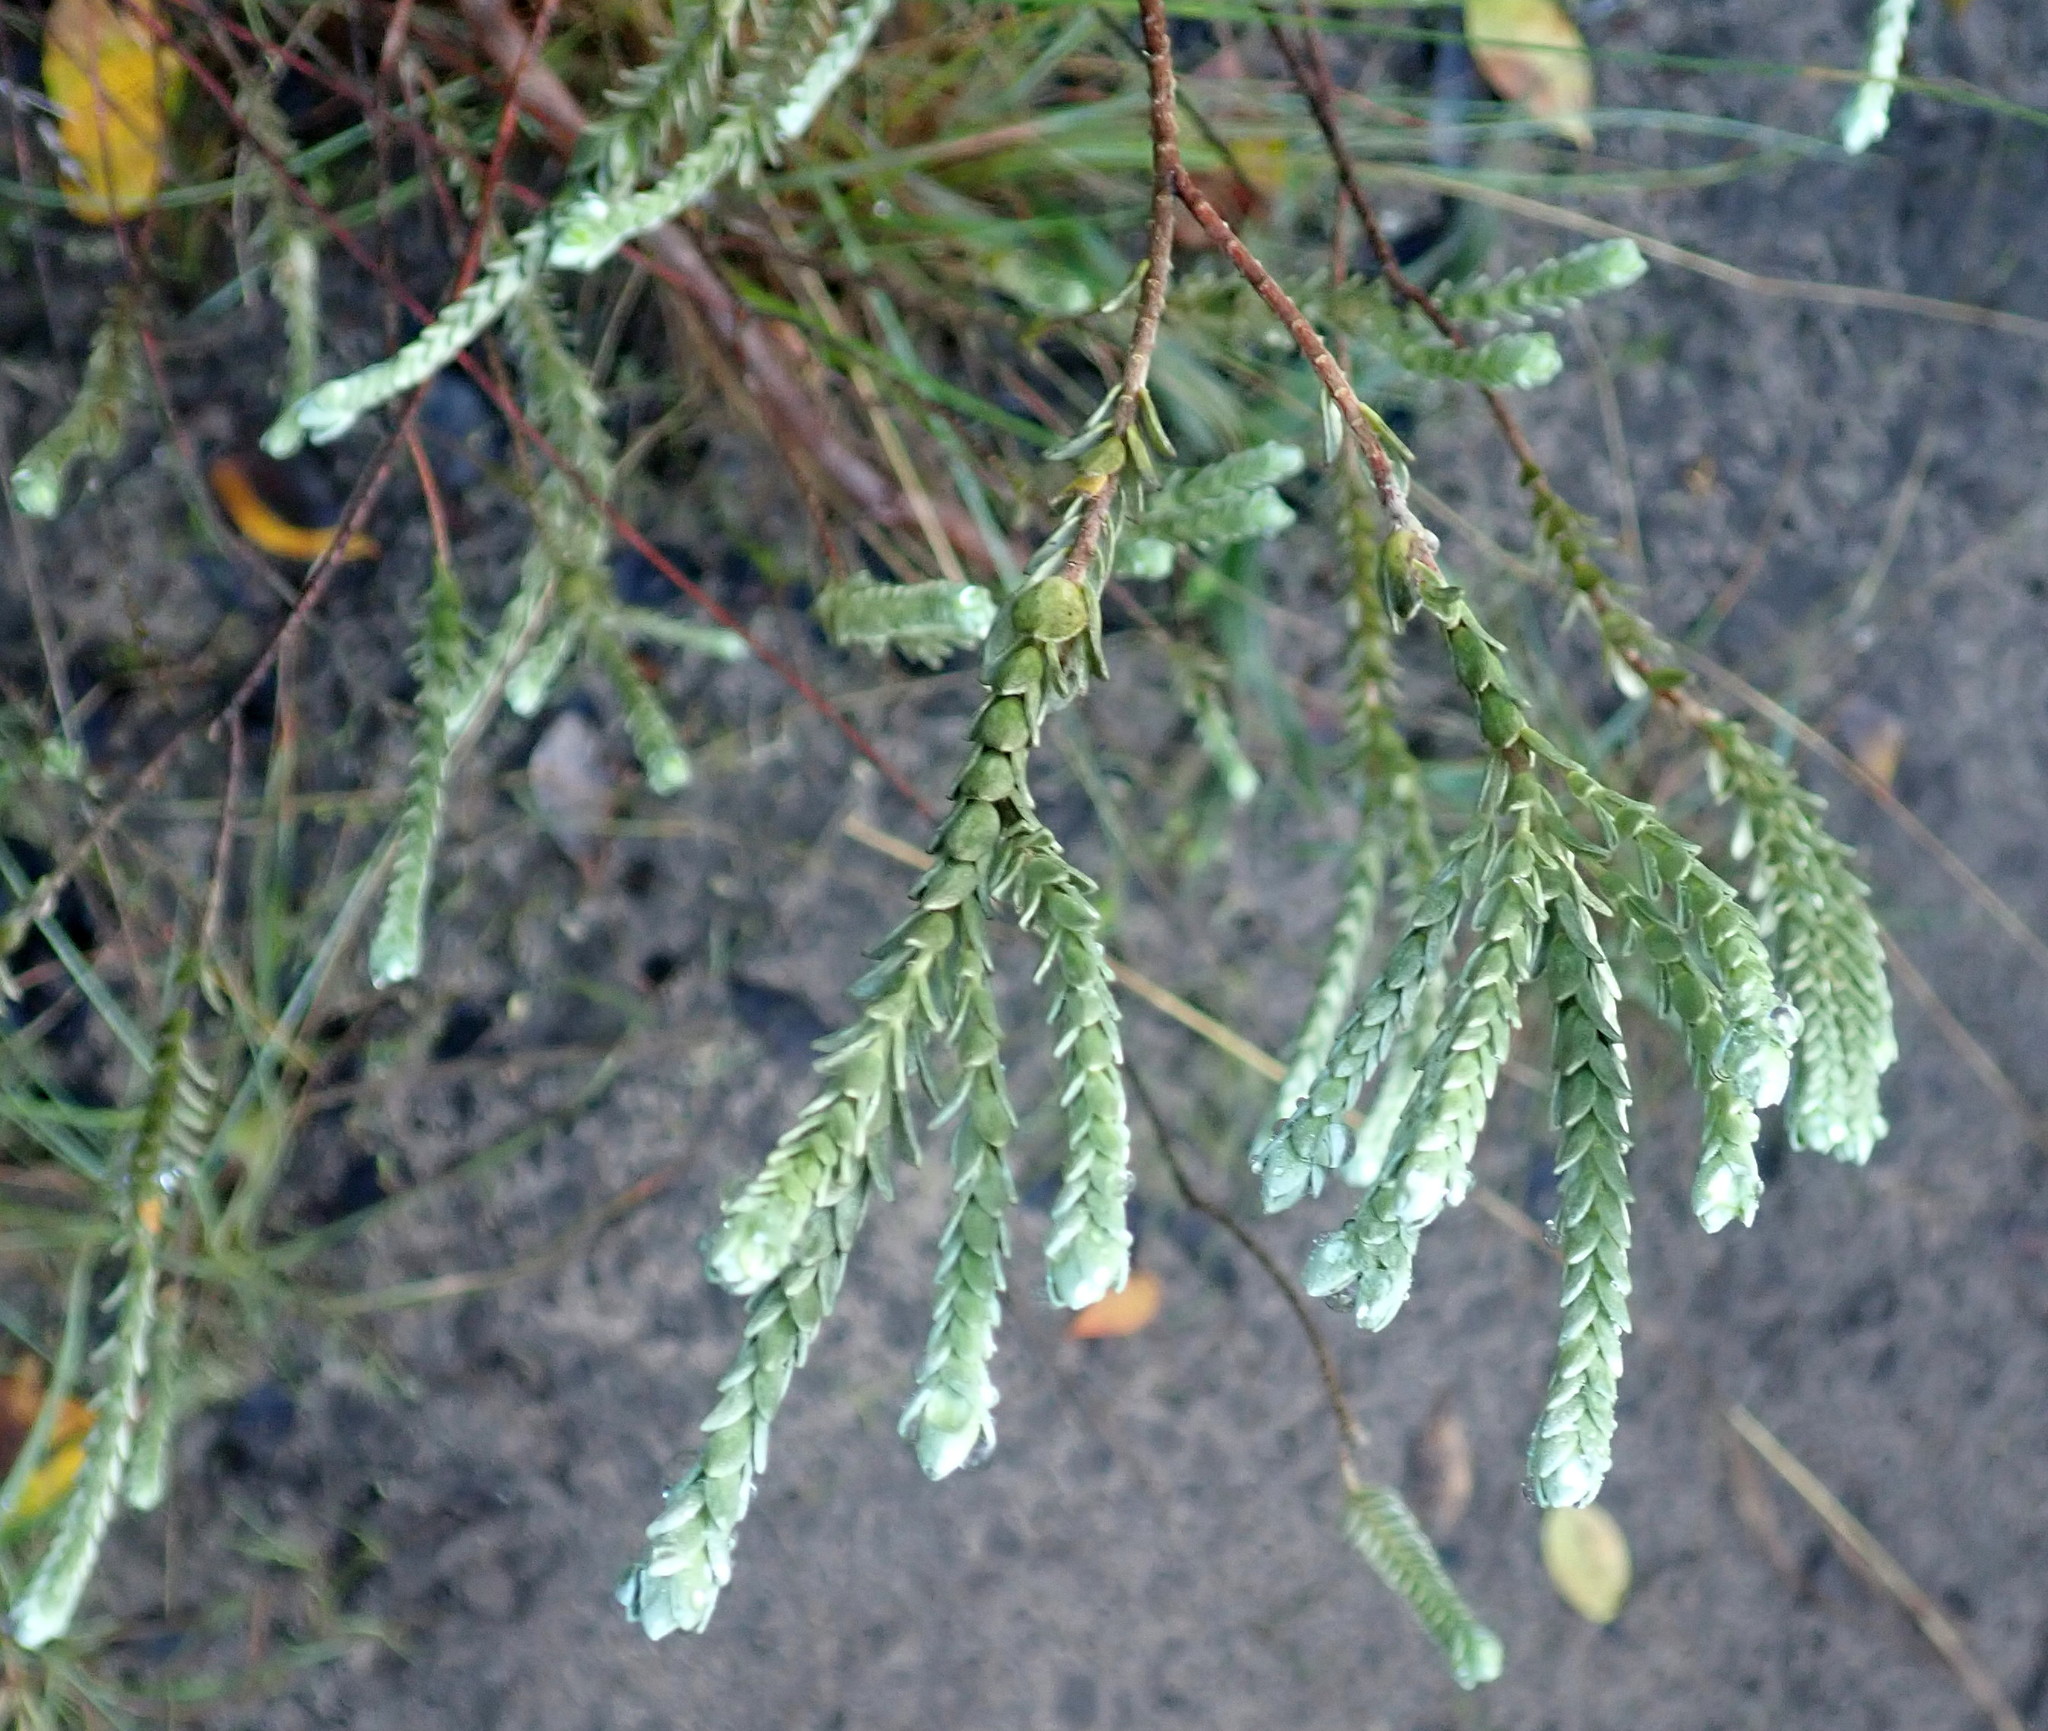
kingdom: Plantae
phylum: Tracheophyta
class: Magnoliopsida
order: Malvales
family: Thymelaeaceae
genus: Gnidia
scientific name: Gnidia chrysophylla
